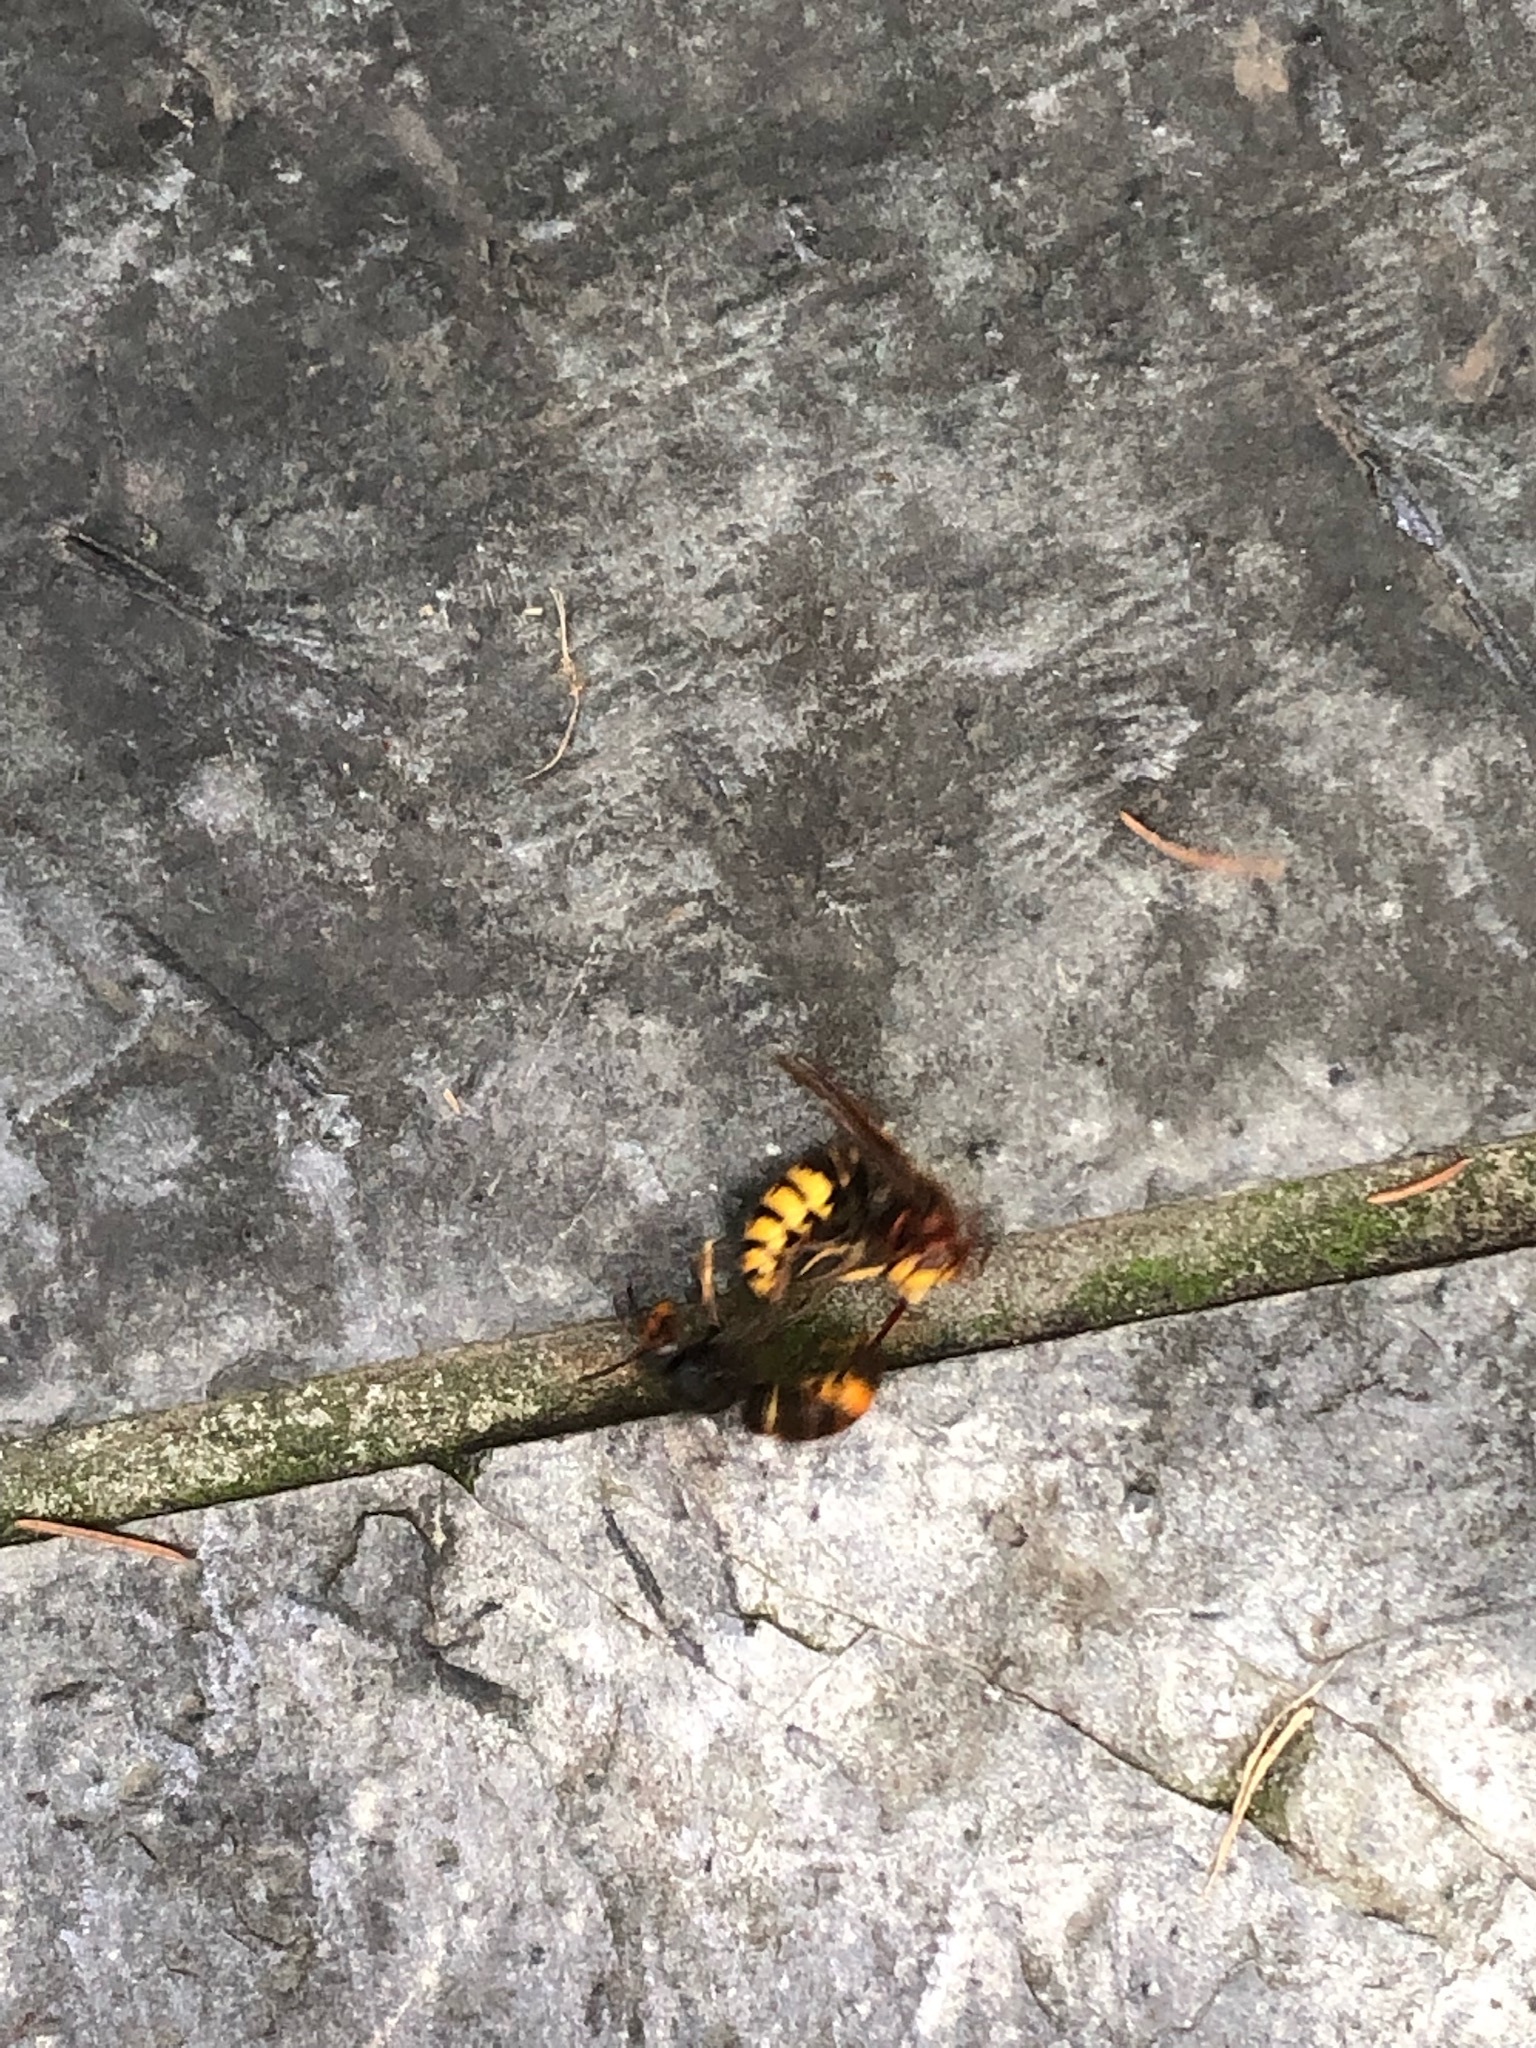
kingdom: Animalia
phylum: Arthropoda
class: Insecta
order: Hymenoptera
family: Vespidae
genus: Vespa
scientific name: Vespa velutina
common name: Asian hornet
